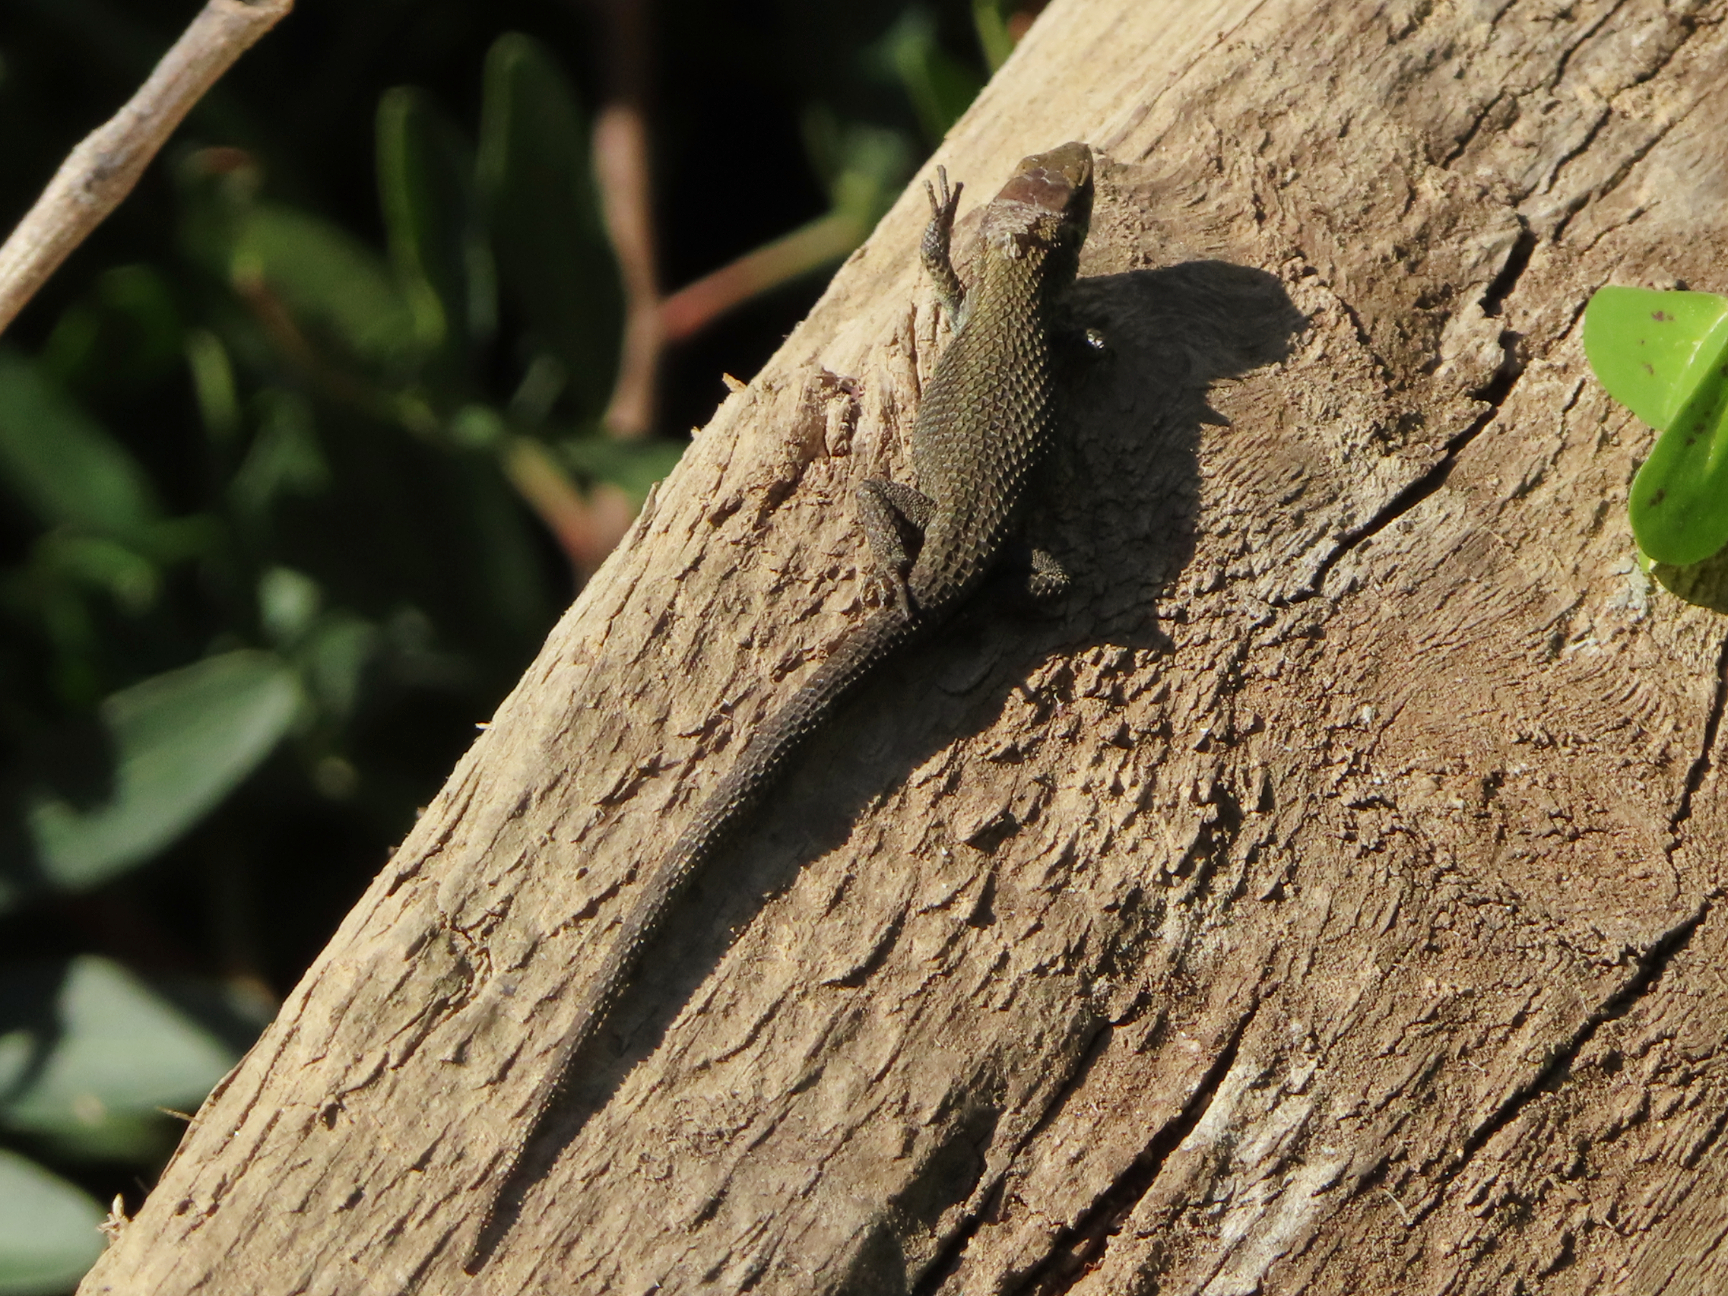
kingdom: Animalia
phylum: Chordata
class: Squamata
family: Lacertidae
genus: Algyroides
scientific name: Algyroides moreoticus
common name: Greek algyroides
